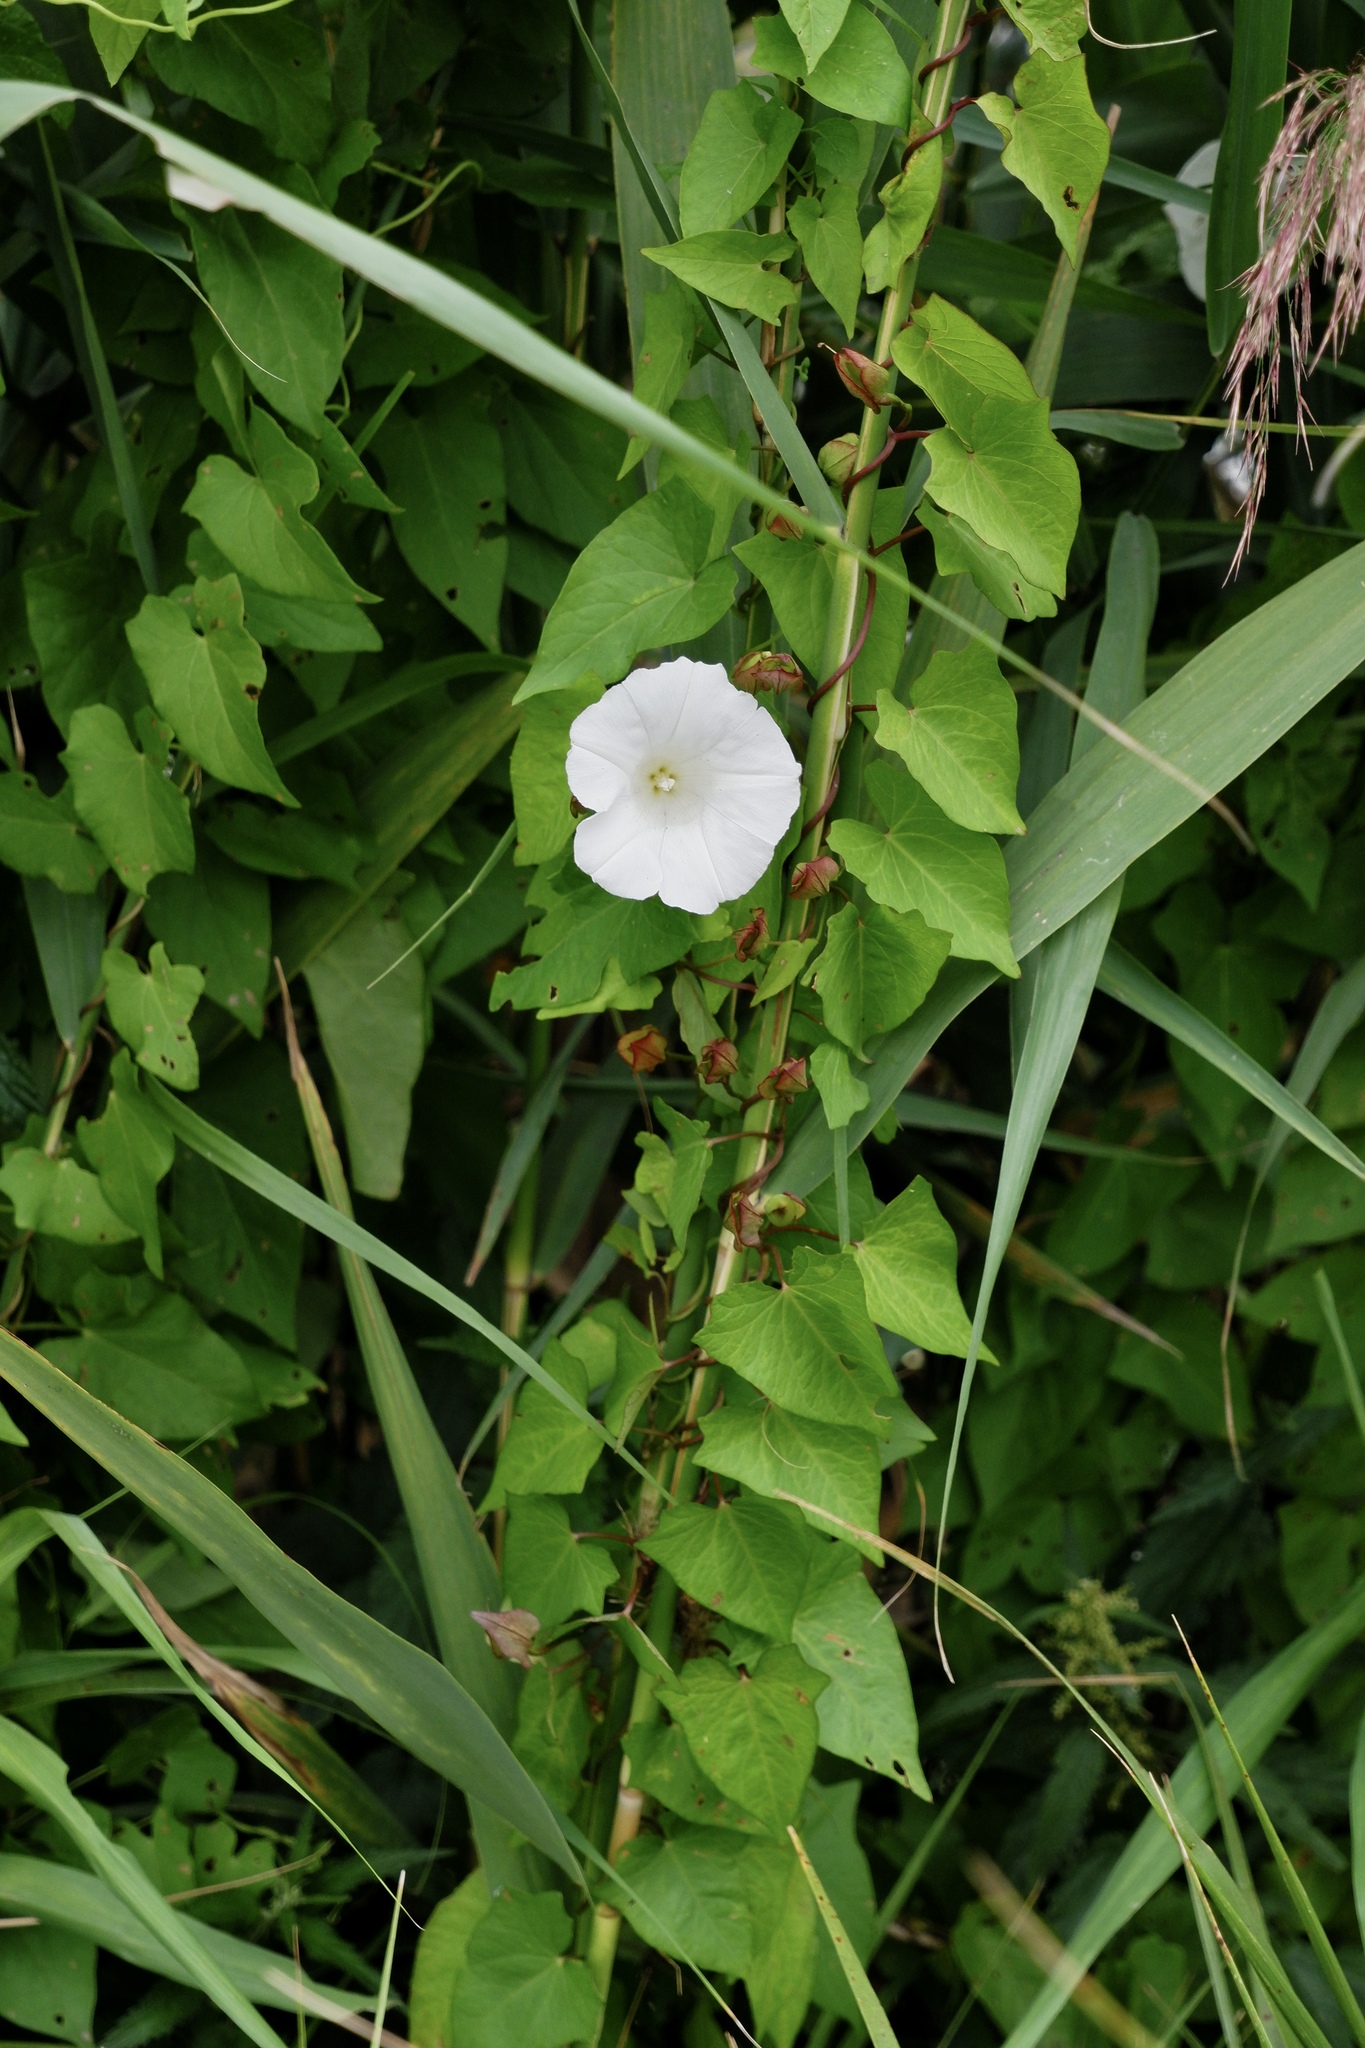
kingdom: Plantae
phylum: Tracheophyta
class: Magnoliopsida
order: Solanales
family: Convolvulaceae
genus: Calystegia
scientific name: Calystegia sepium
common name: Hedge bindweed
